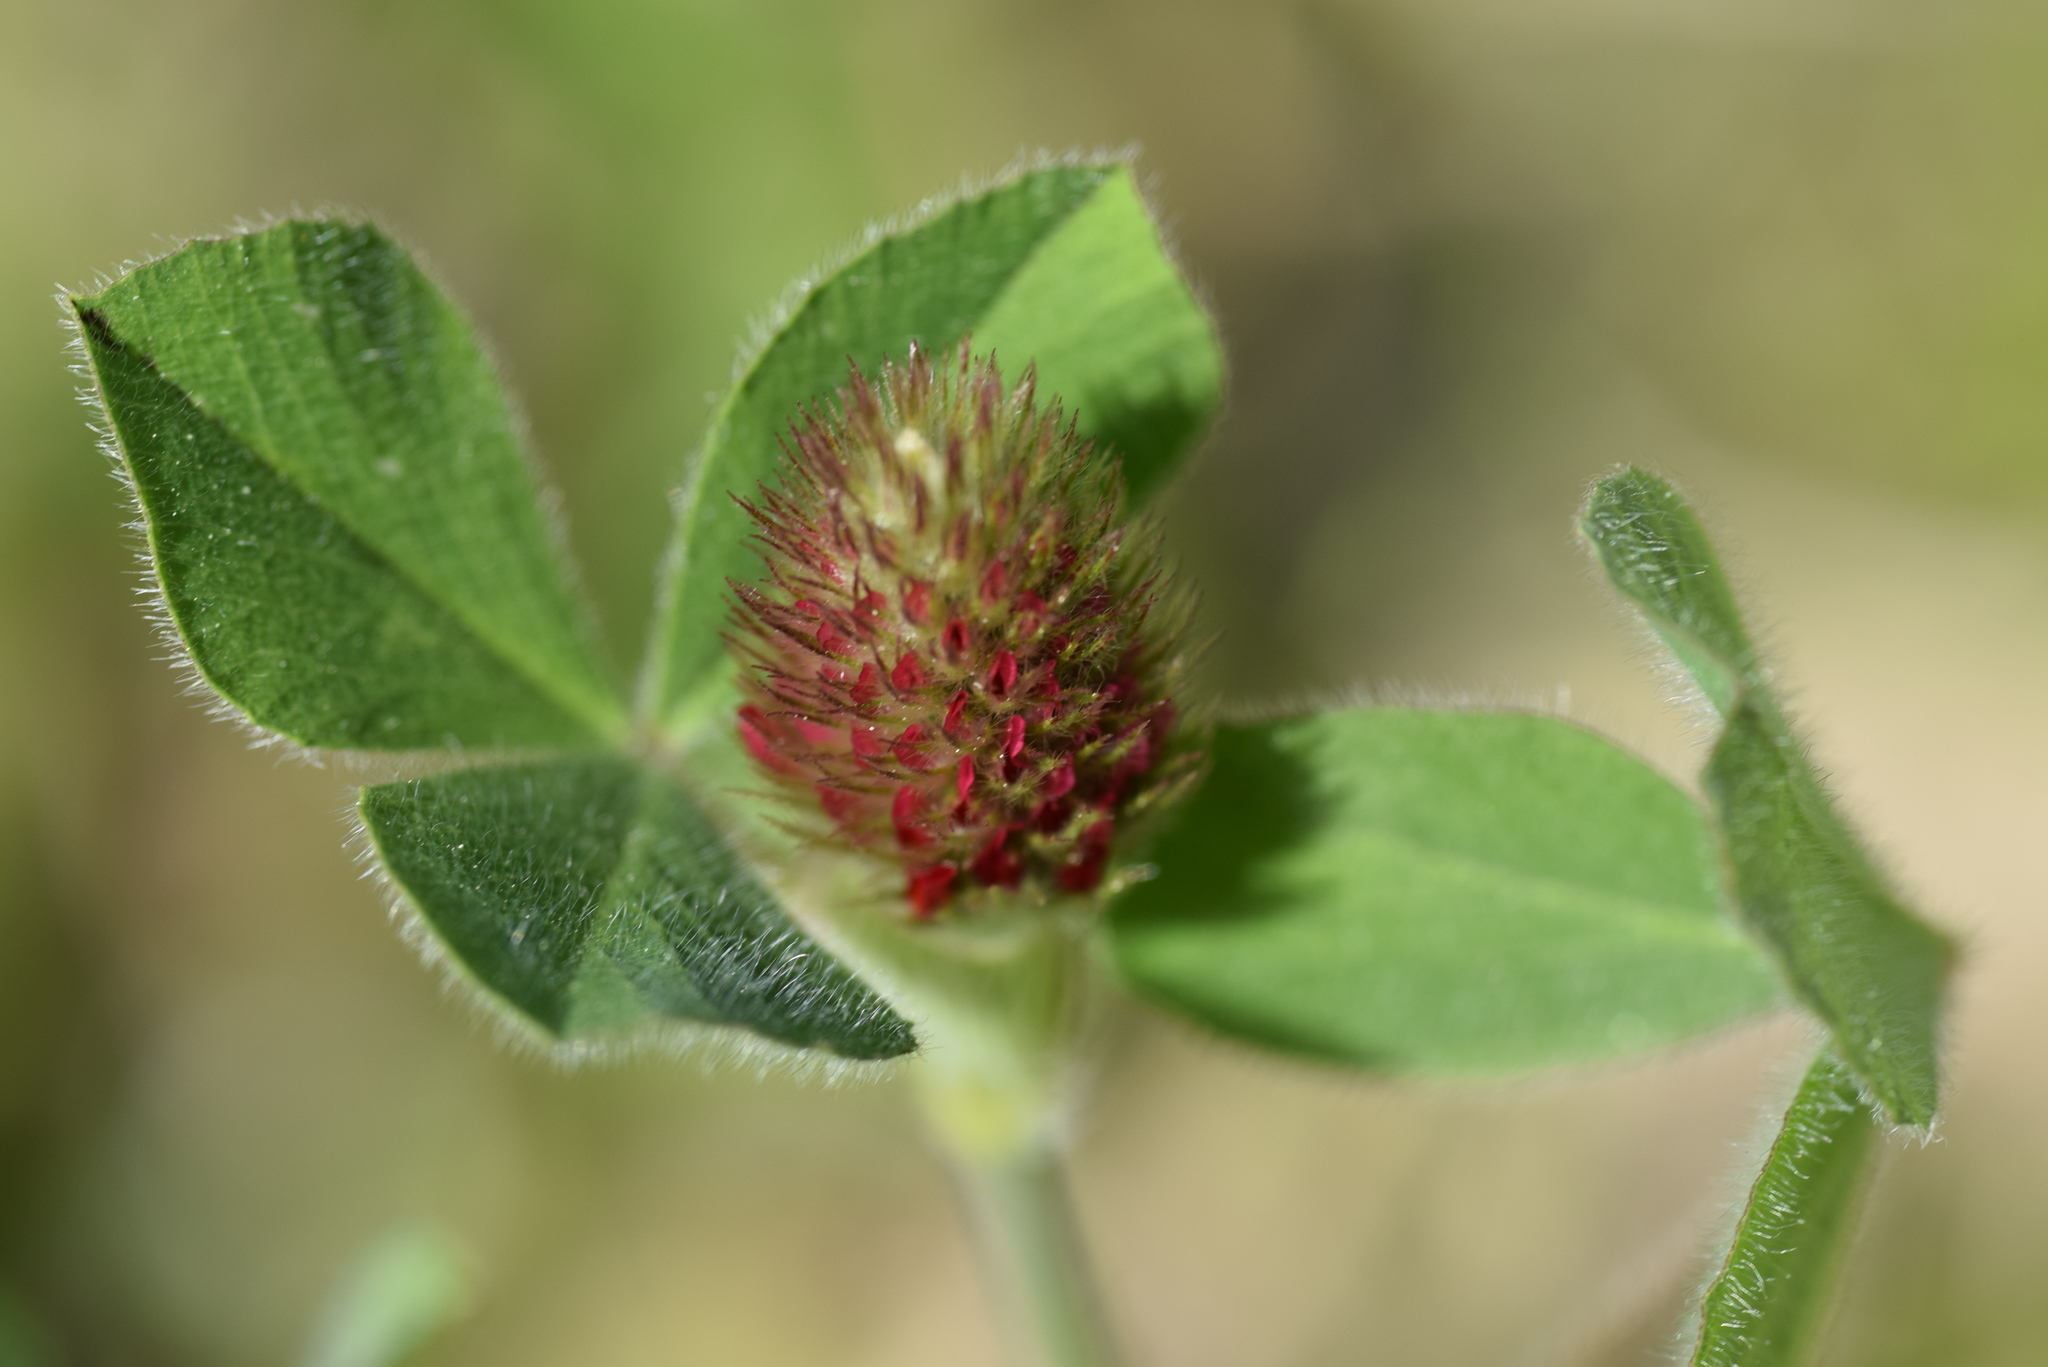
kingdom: Plantae
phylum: Tracheophyta
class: Magnoliopsida
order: Fabales
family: Fabaceae
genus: Trifolium
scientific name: Trifolium incarnatum
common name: Crimson clover
